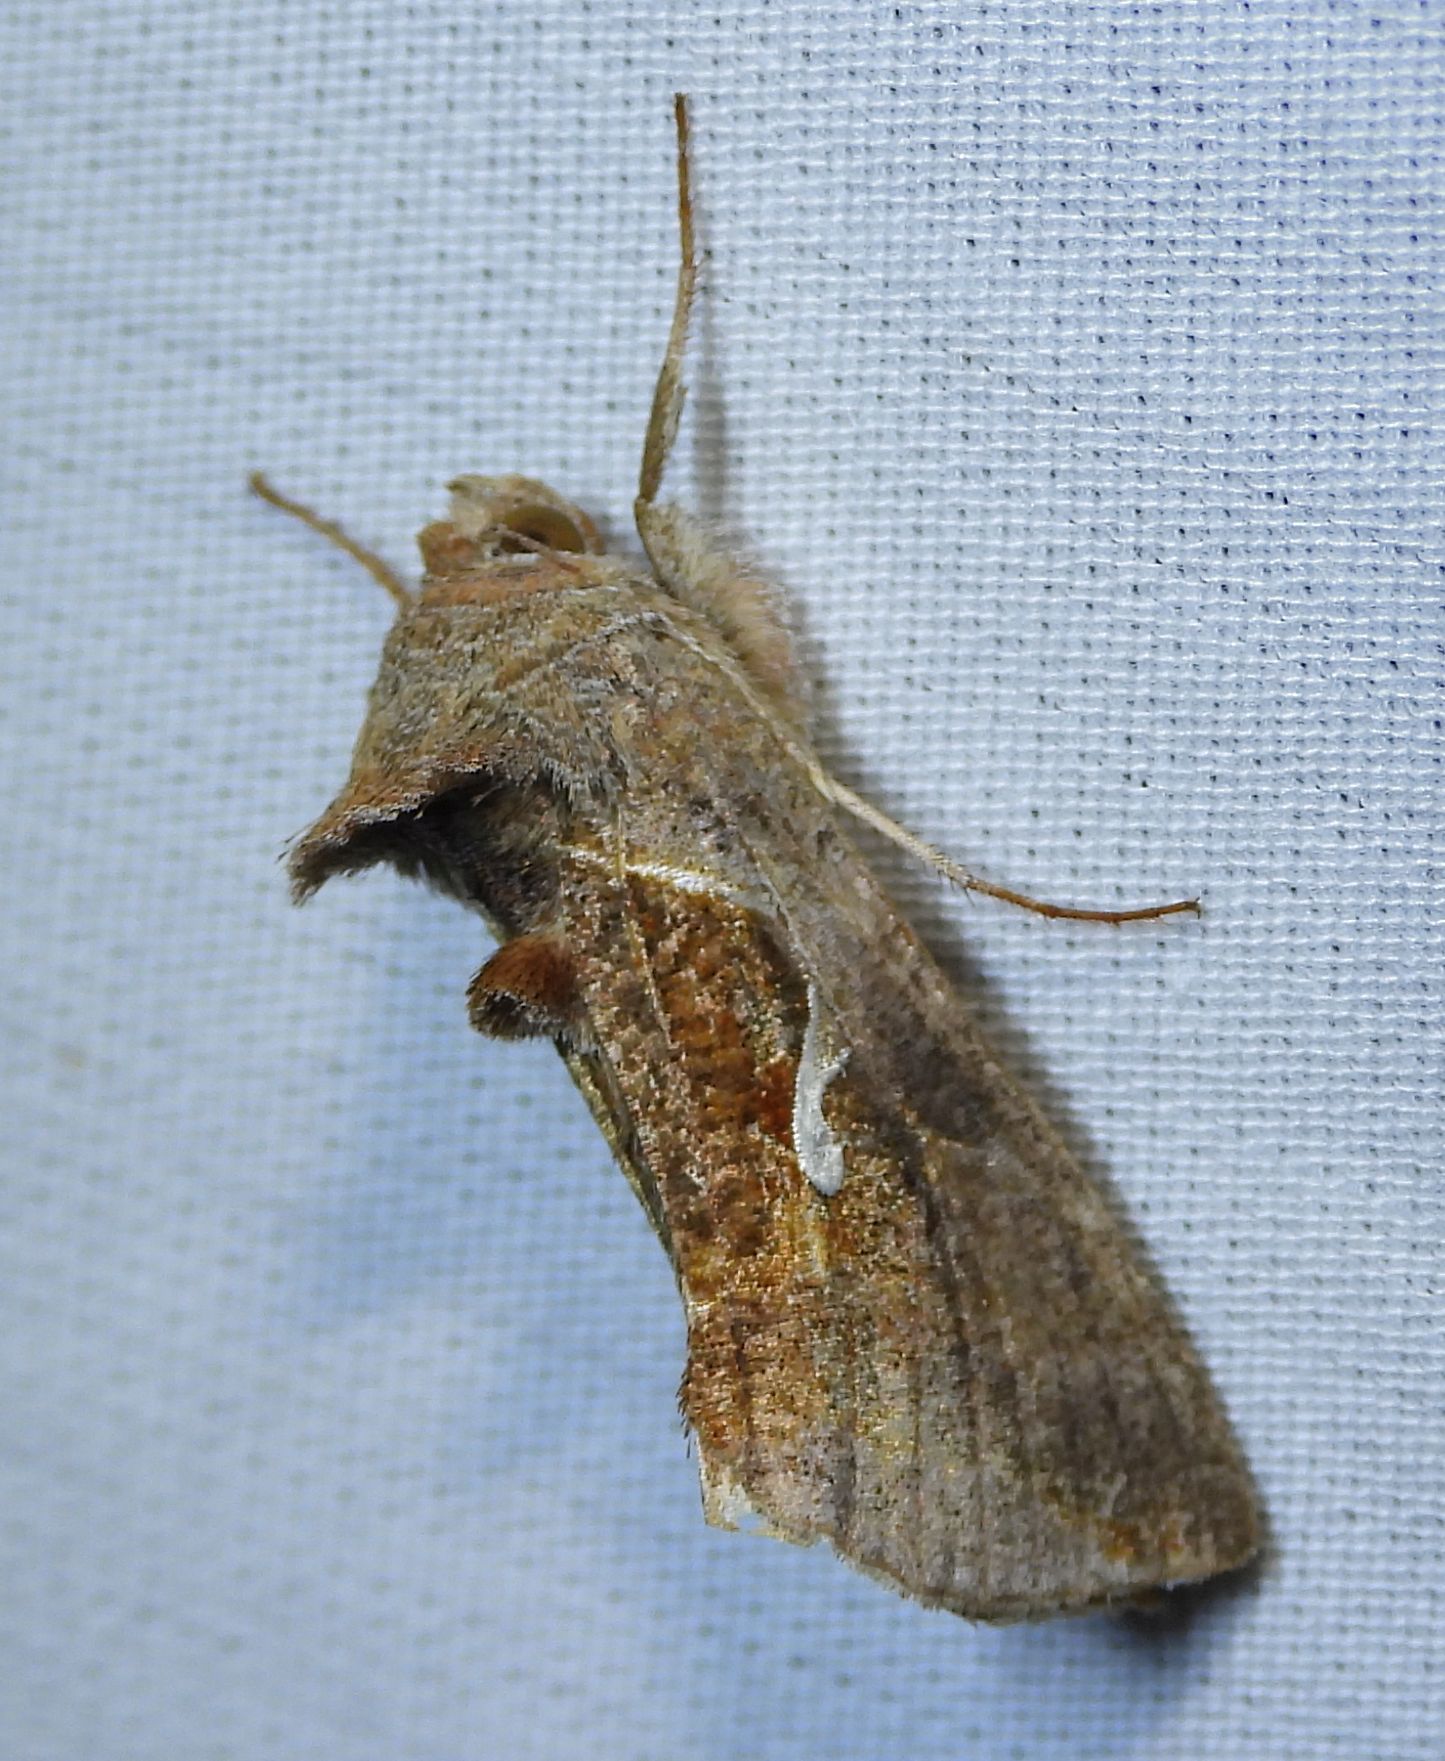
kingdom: Animalia
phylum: Arthropoda
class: Insecta
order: Lepidoptera
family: Noctuidae
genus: Anagrapha
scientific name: Anagrapha falcifera
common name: Celery looper
